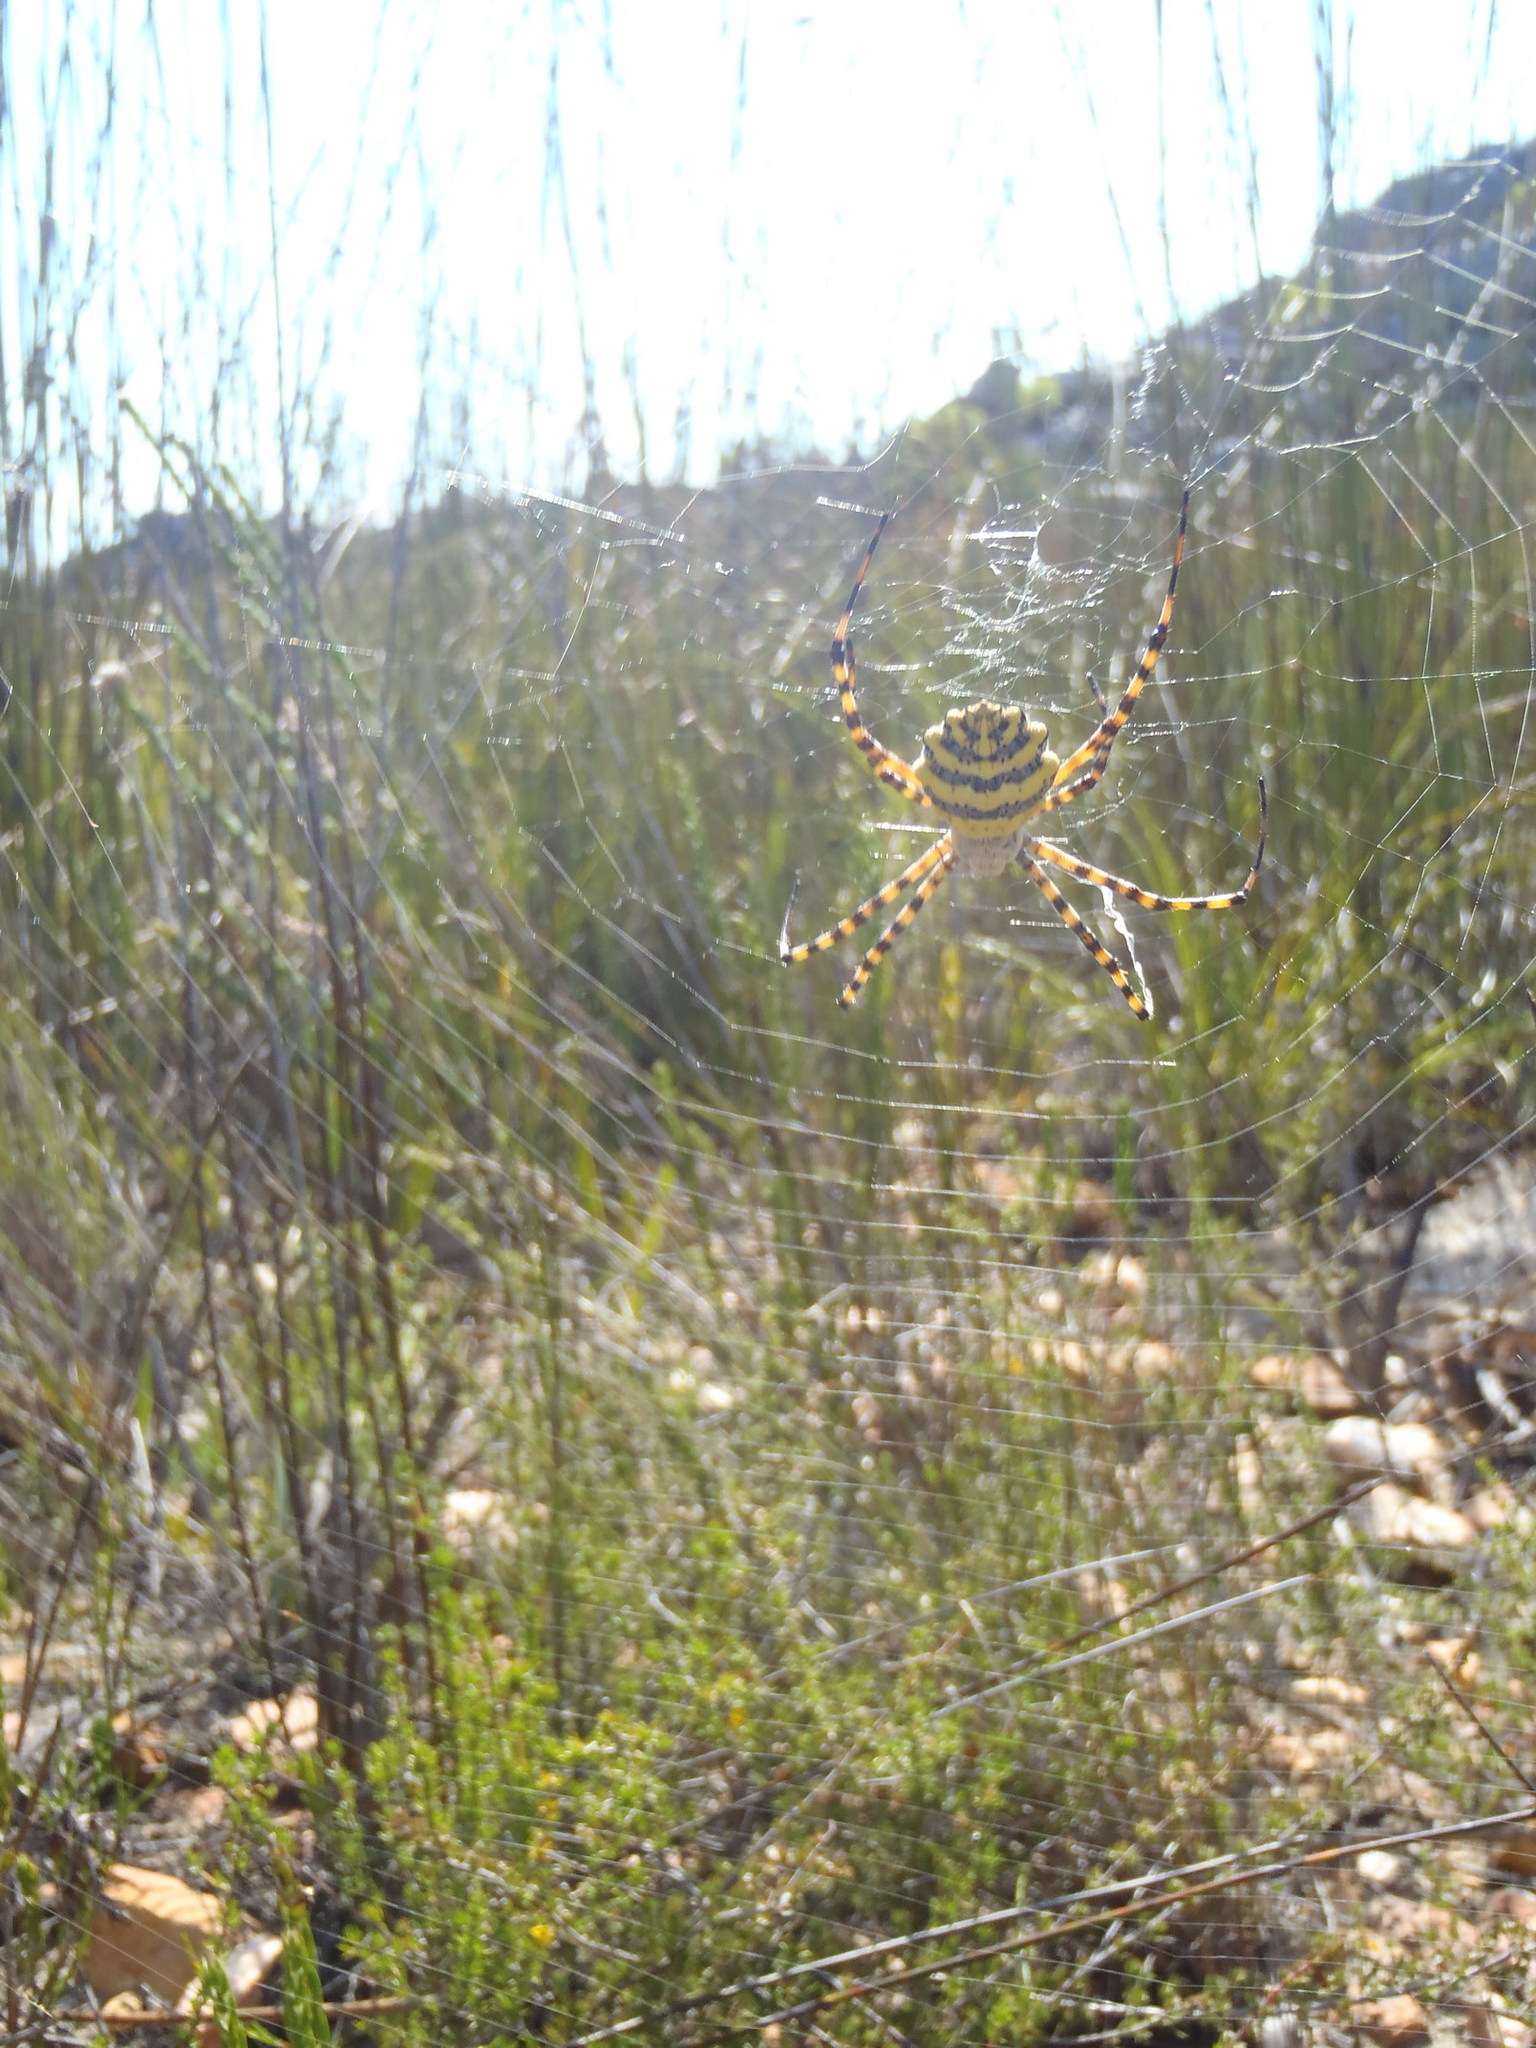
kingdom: Animalia
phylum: Arthropoda
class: Arachnida
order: Araneae
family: Araneidae
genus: Argiope
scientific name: Argiope australis
